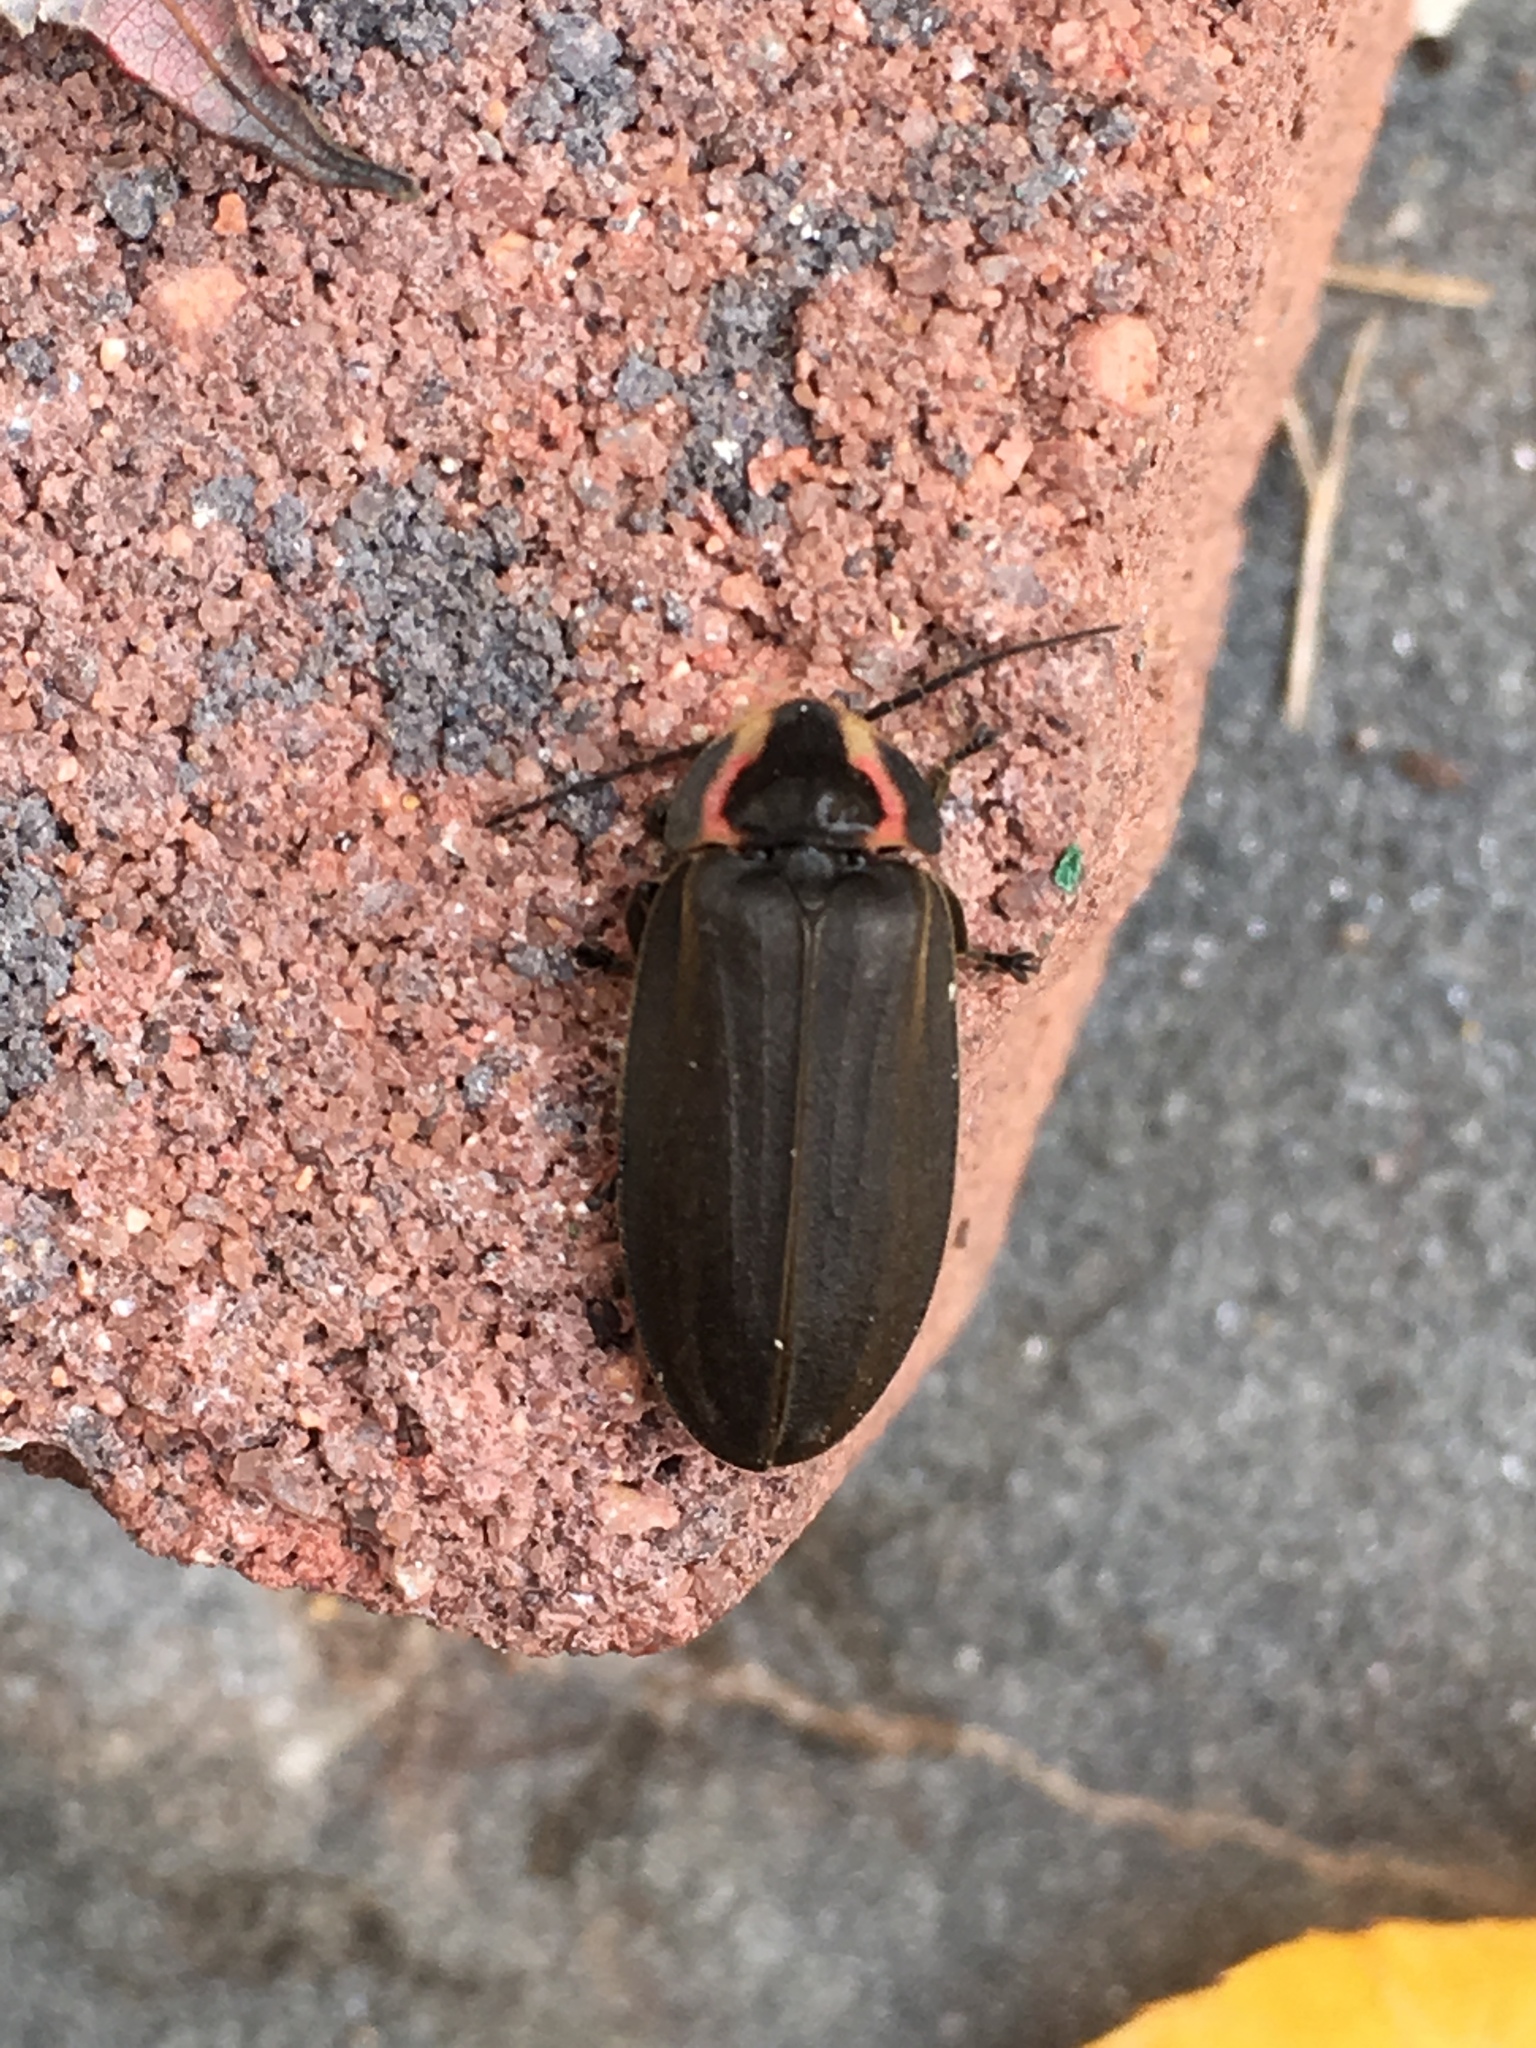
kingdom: Animalia
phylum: Arthropoda
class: Insecta
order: Coleoptera
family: Lampyridae
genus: Photinus
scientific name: Photinus corrusca
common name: Winter firefly
